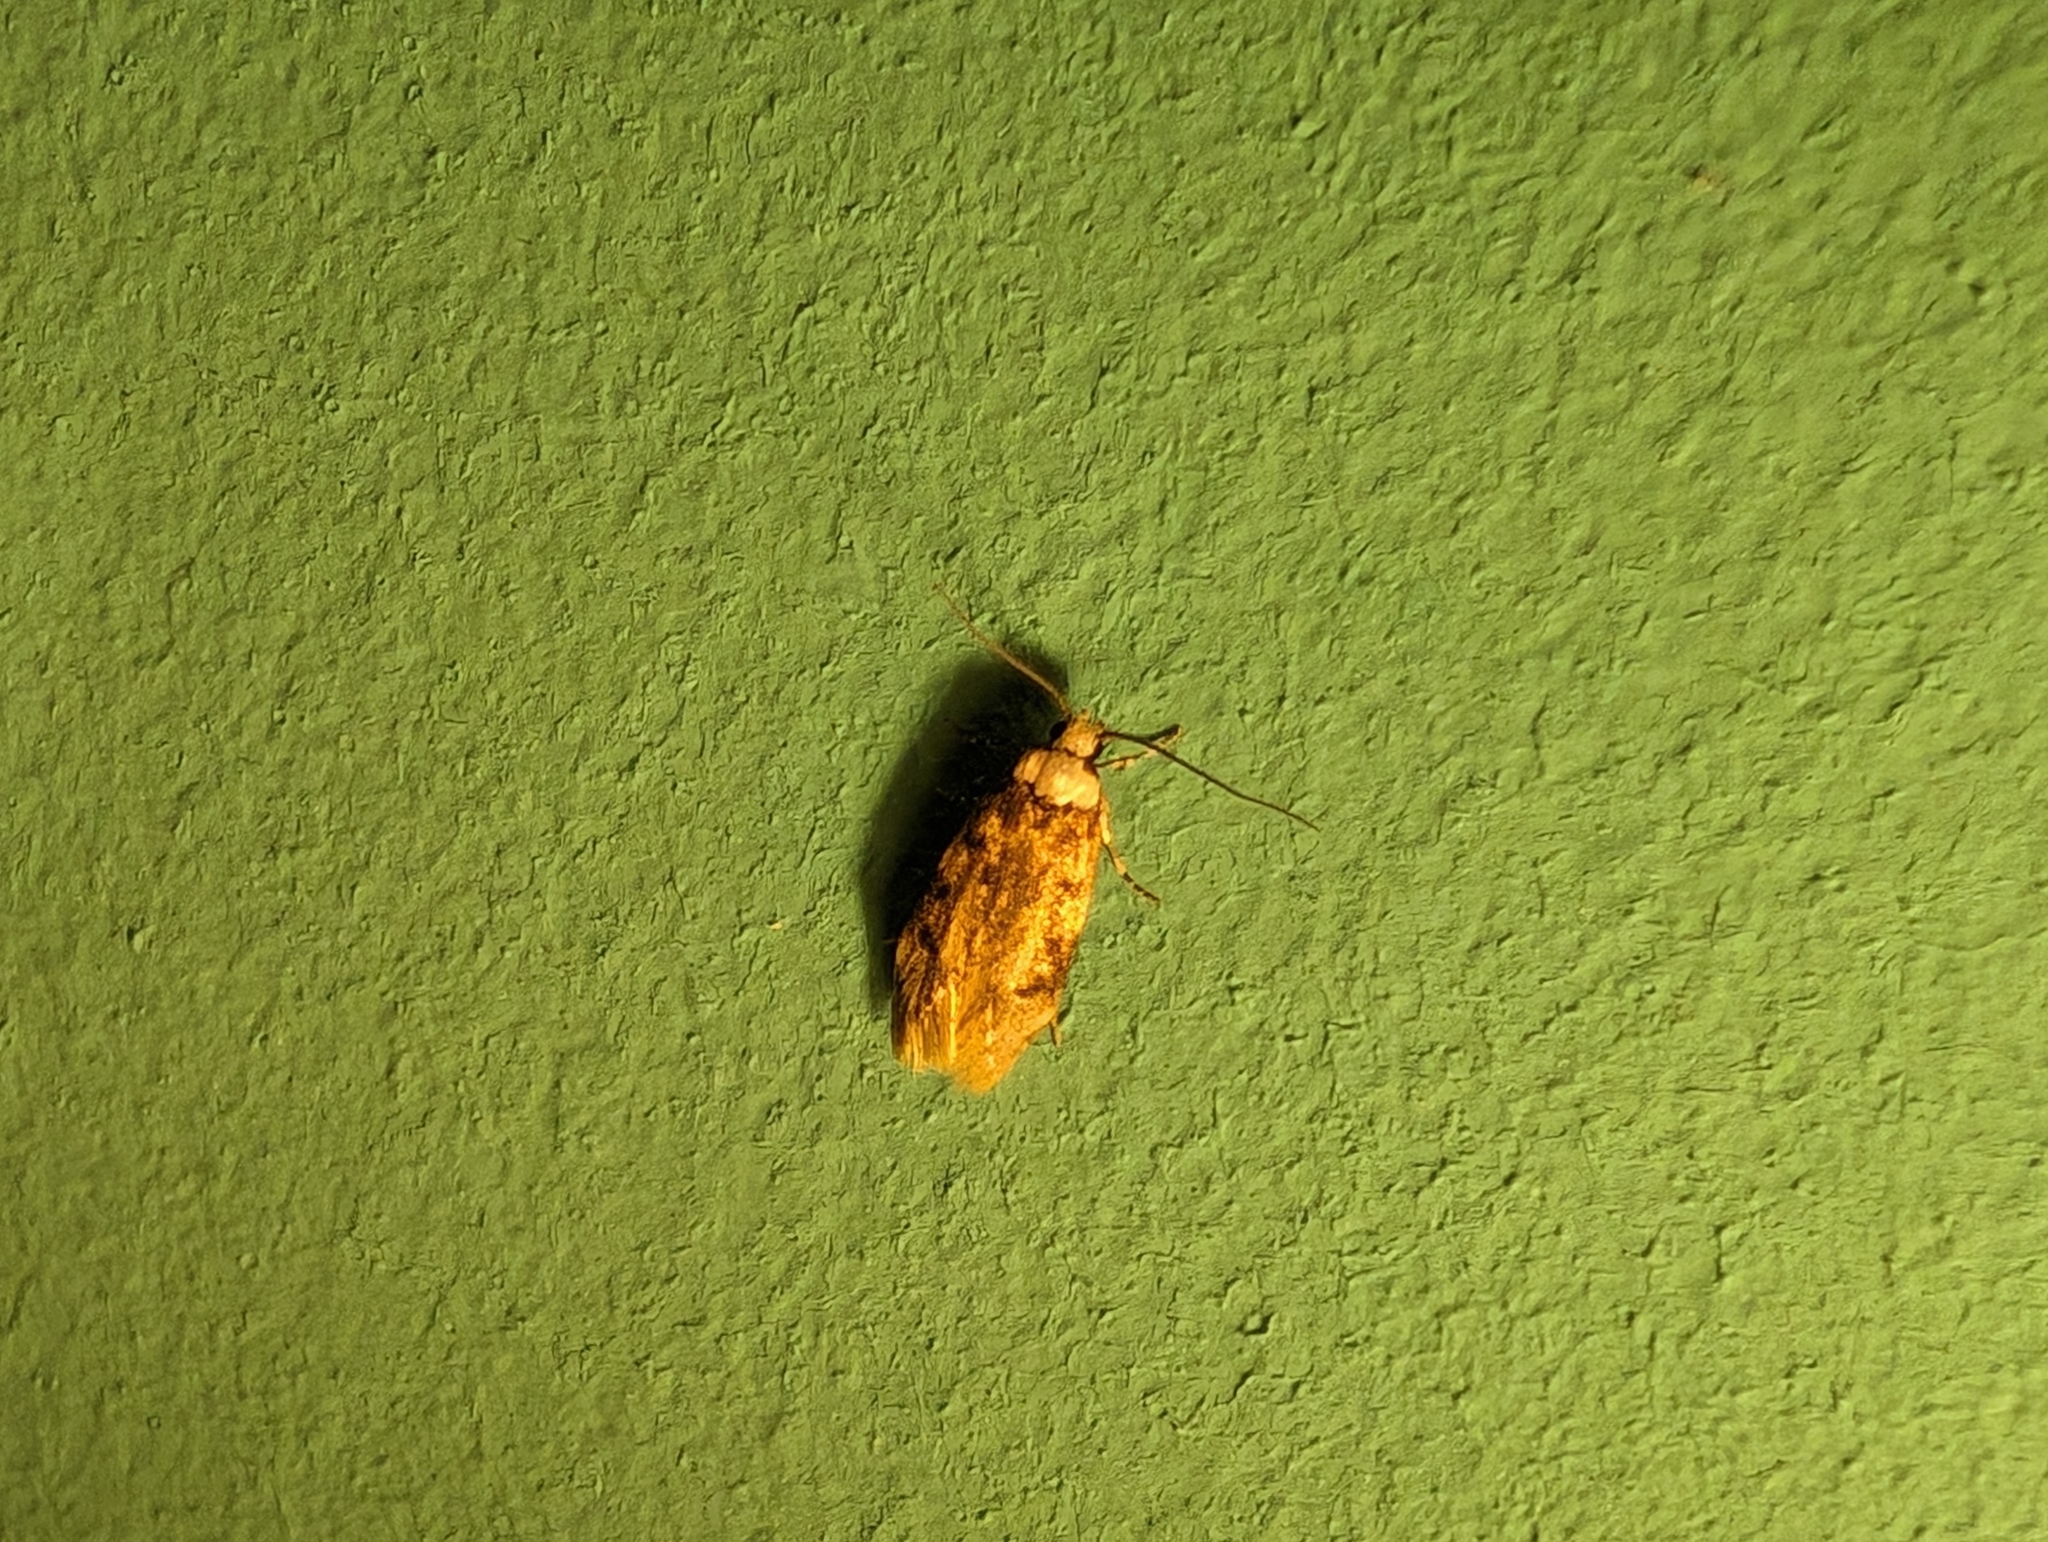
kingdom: Animalia
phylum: Arthropoda
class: Insecta
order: Lepidoptera
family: Oecophoridae
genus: Endrosis
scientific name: Endrosis sarcitrella
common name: White-shouldered house moth
